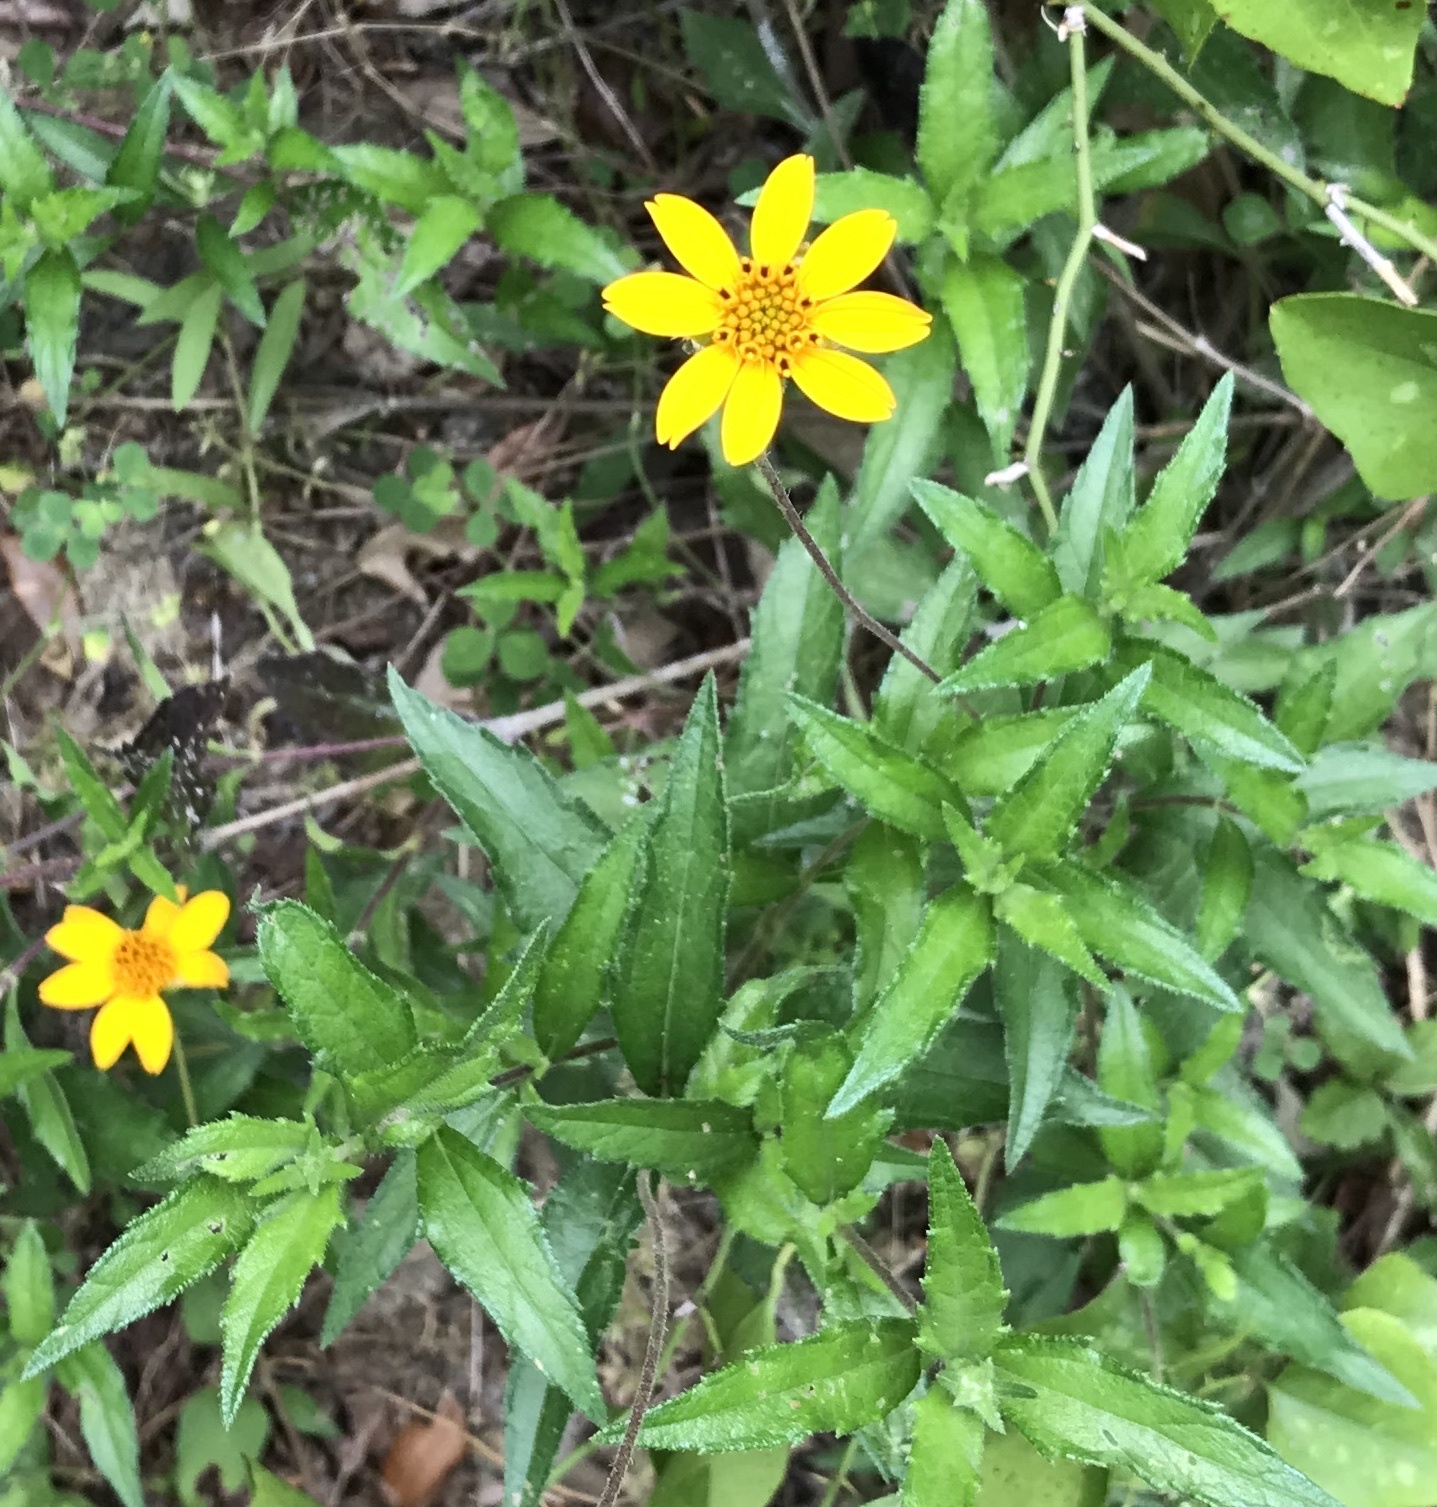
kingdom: Plantae
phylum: Tracheophyta
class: Magnoliopsida
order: Asterales
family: Asteraceae
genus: Wedelia
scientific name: Wedelia acapulcensis
